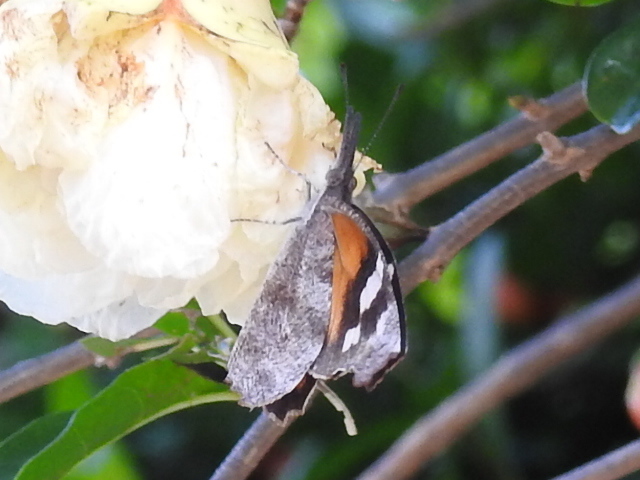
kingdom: Animalia
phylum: Arthropoda
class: Insecta
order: Lepidoptera
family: Nymphalidae
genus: Libytheana
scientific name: Libytheana carinenta
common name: American snout
